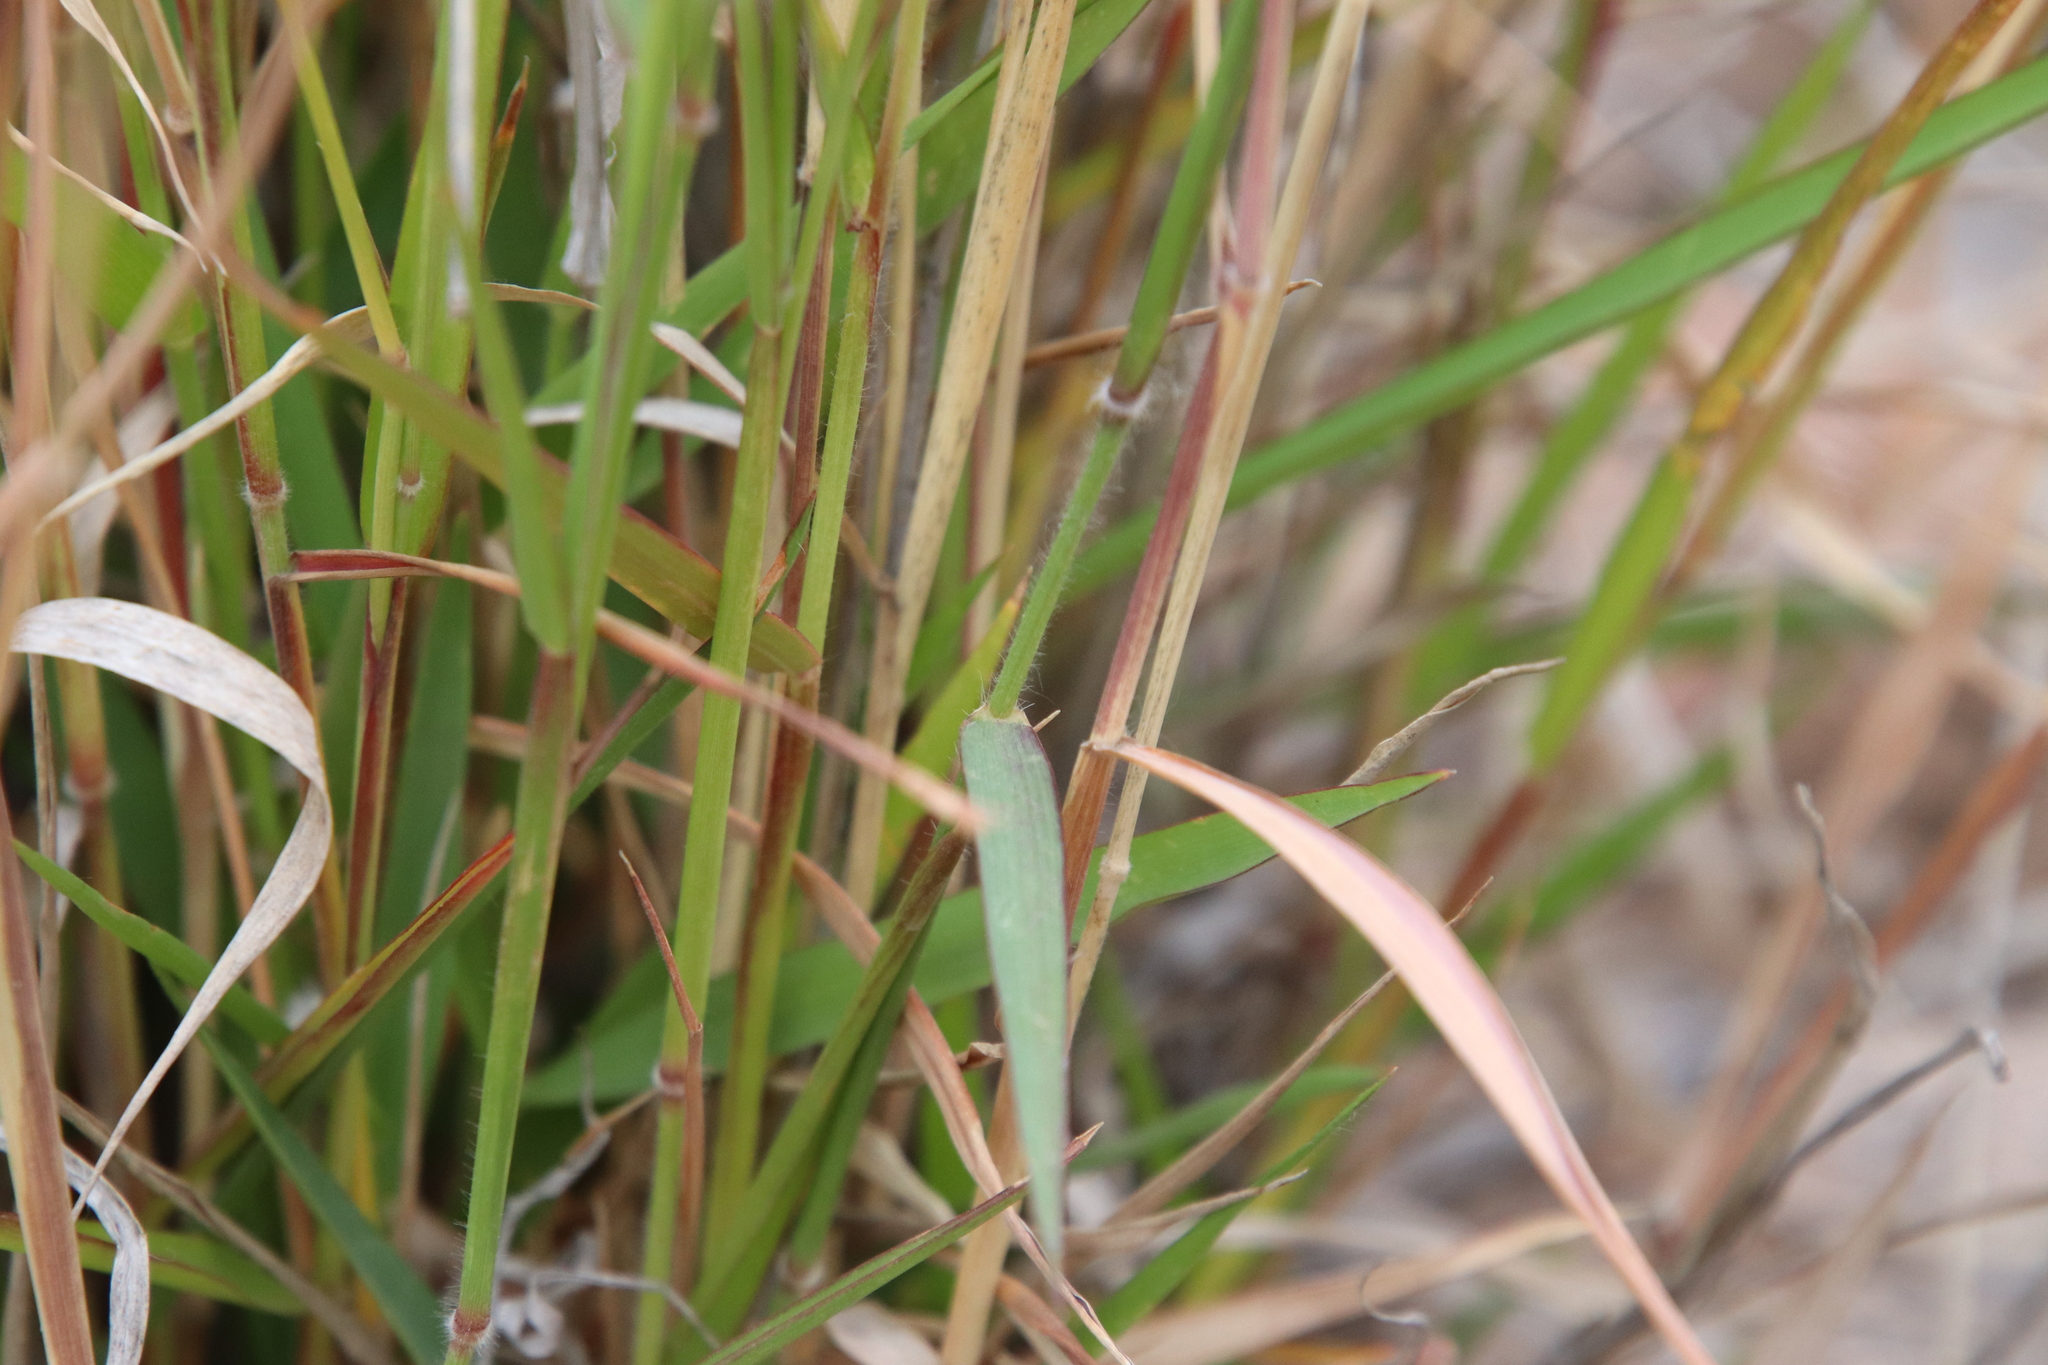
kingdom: Plantae
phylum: Tracheophyta
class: Liliopsida
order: Poales
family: Poaceae
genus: Melinis
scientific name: Melinis repens
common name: Rose natal grass
